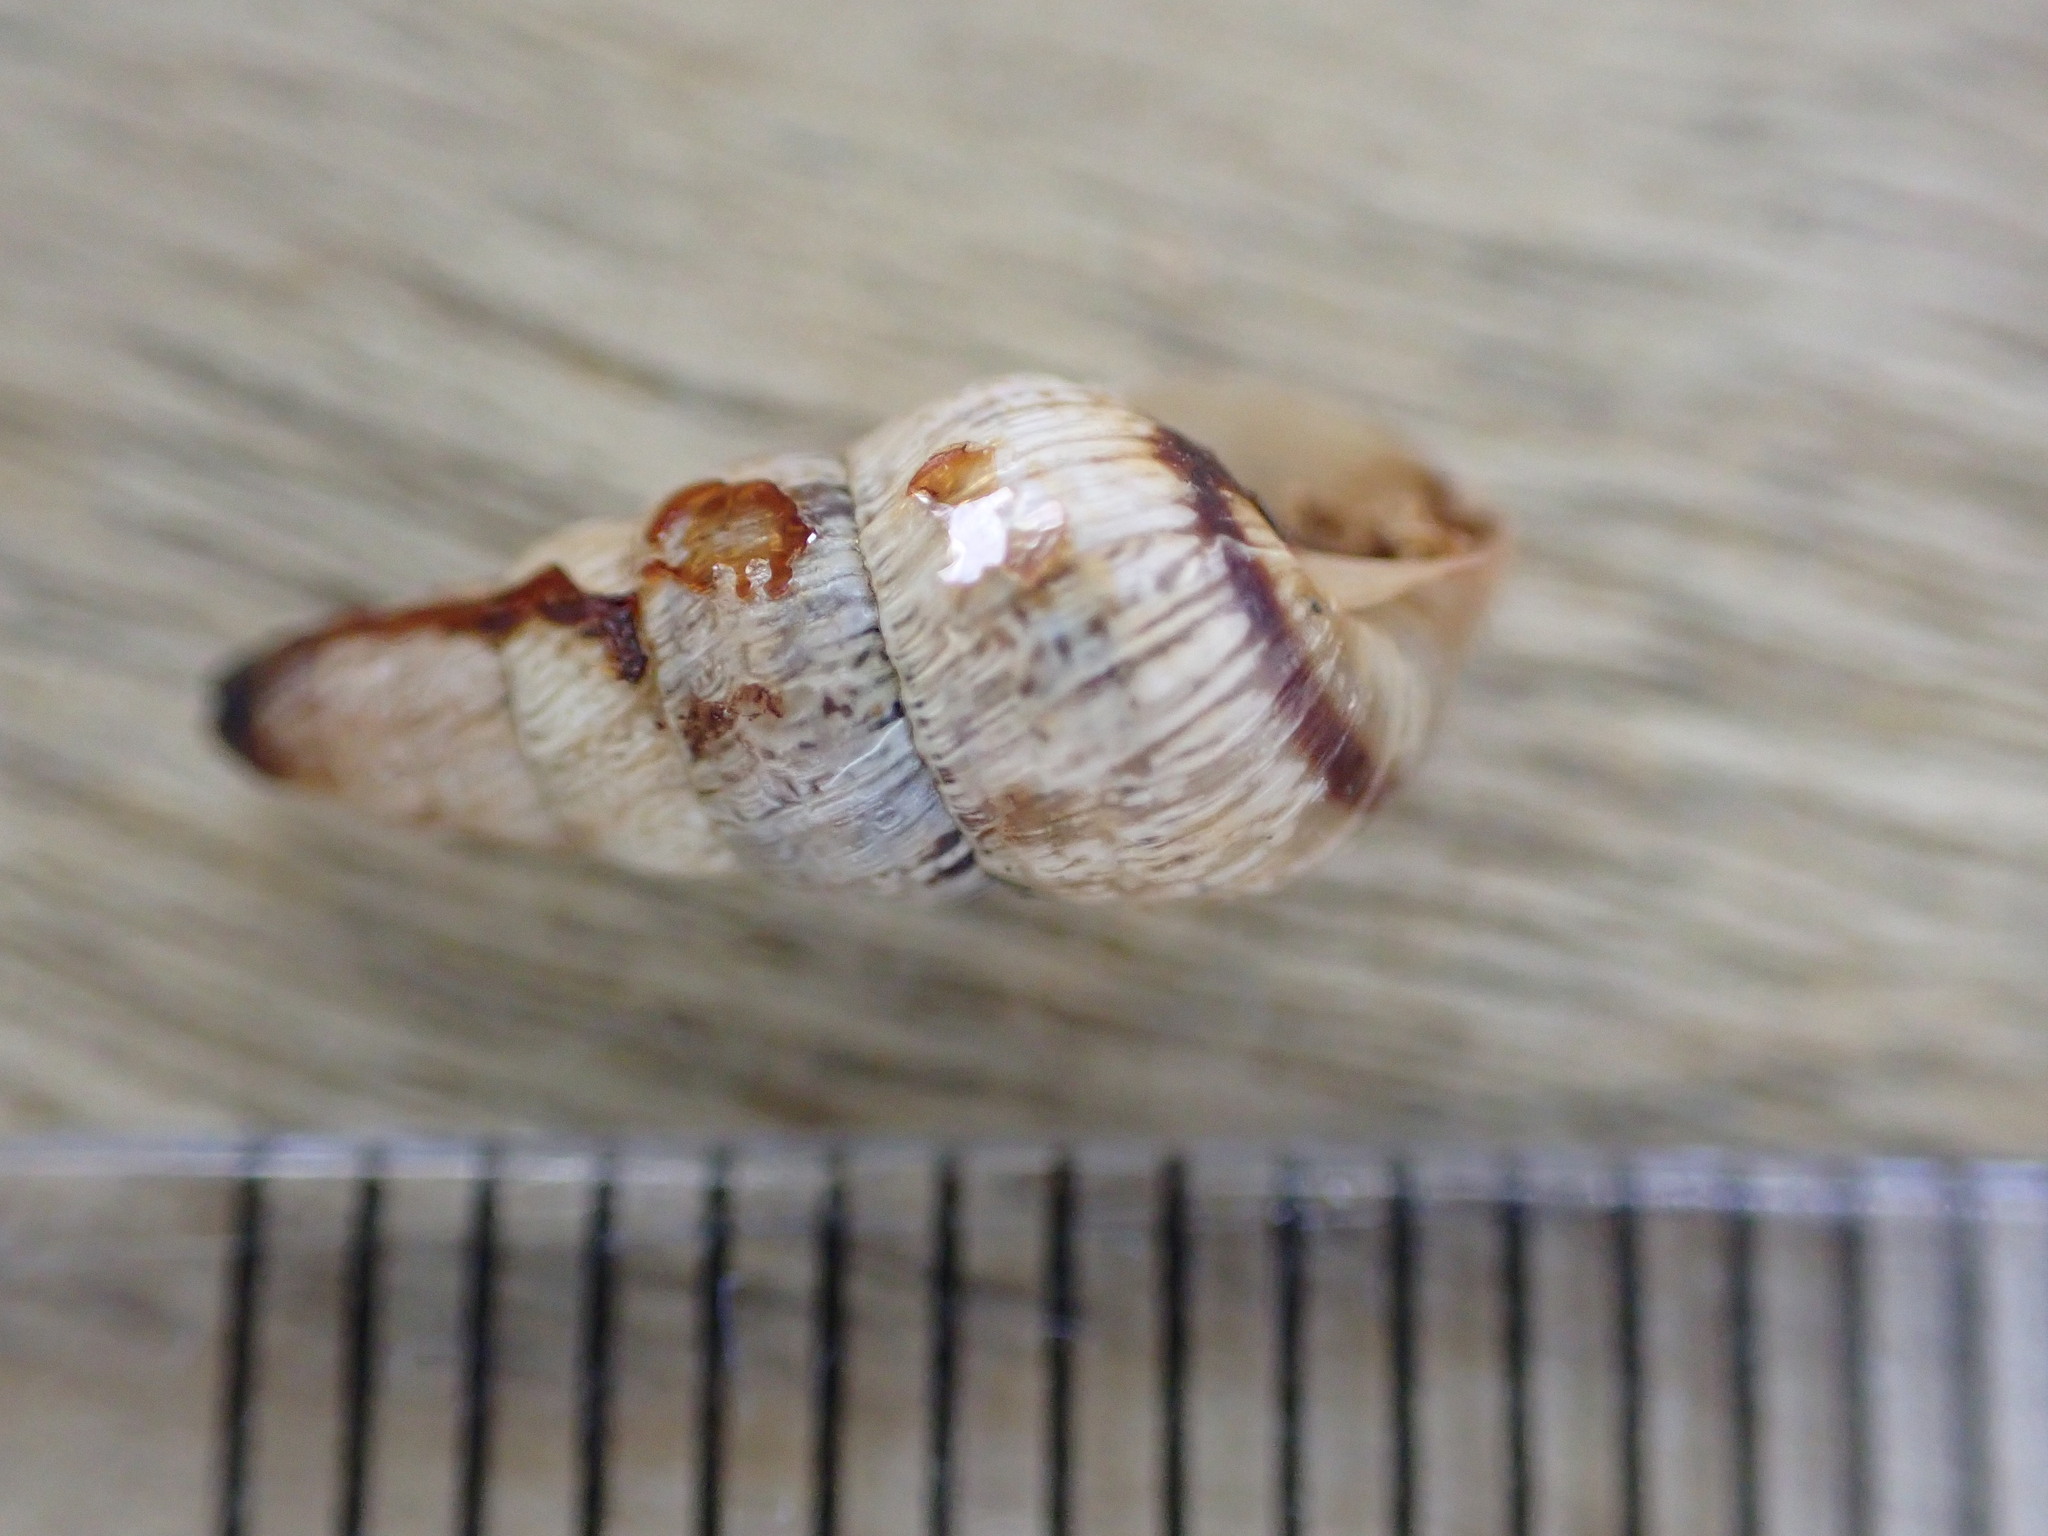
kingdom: Animalia
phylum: Mollusca
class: Gastropoda
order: Stylommatophora
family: Geomitridae
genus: Cochlicella
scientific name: Cochlicella acuta
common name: Pointed snail
